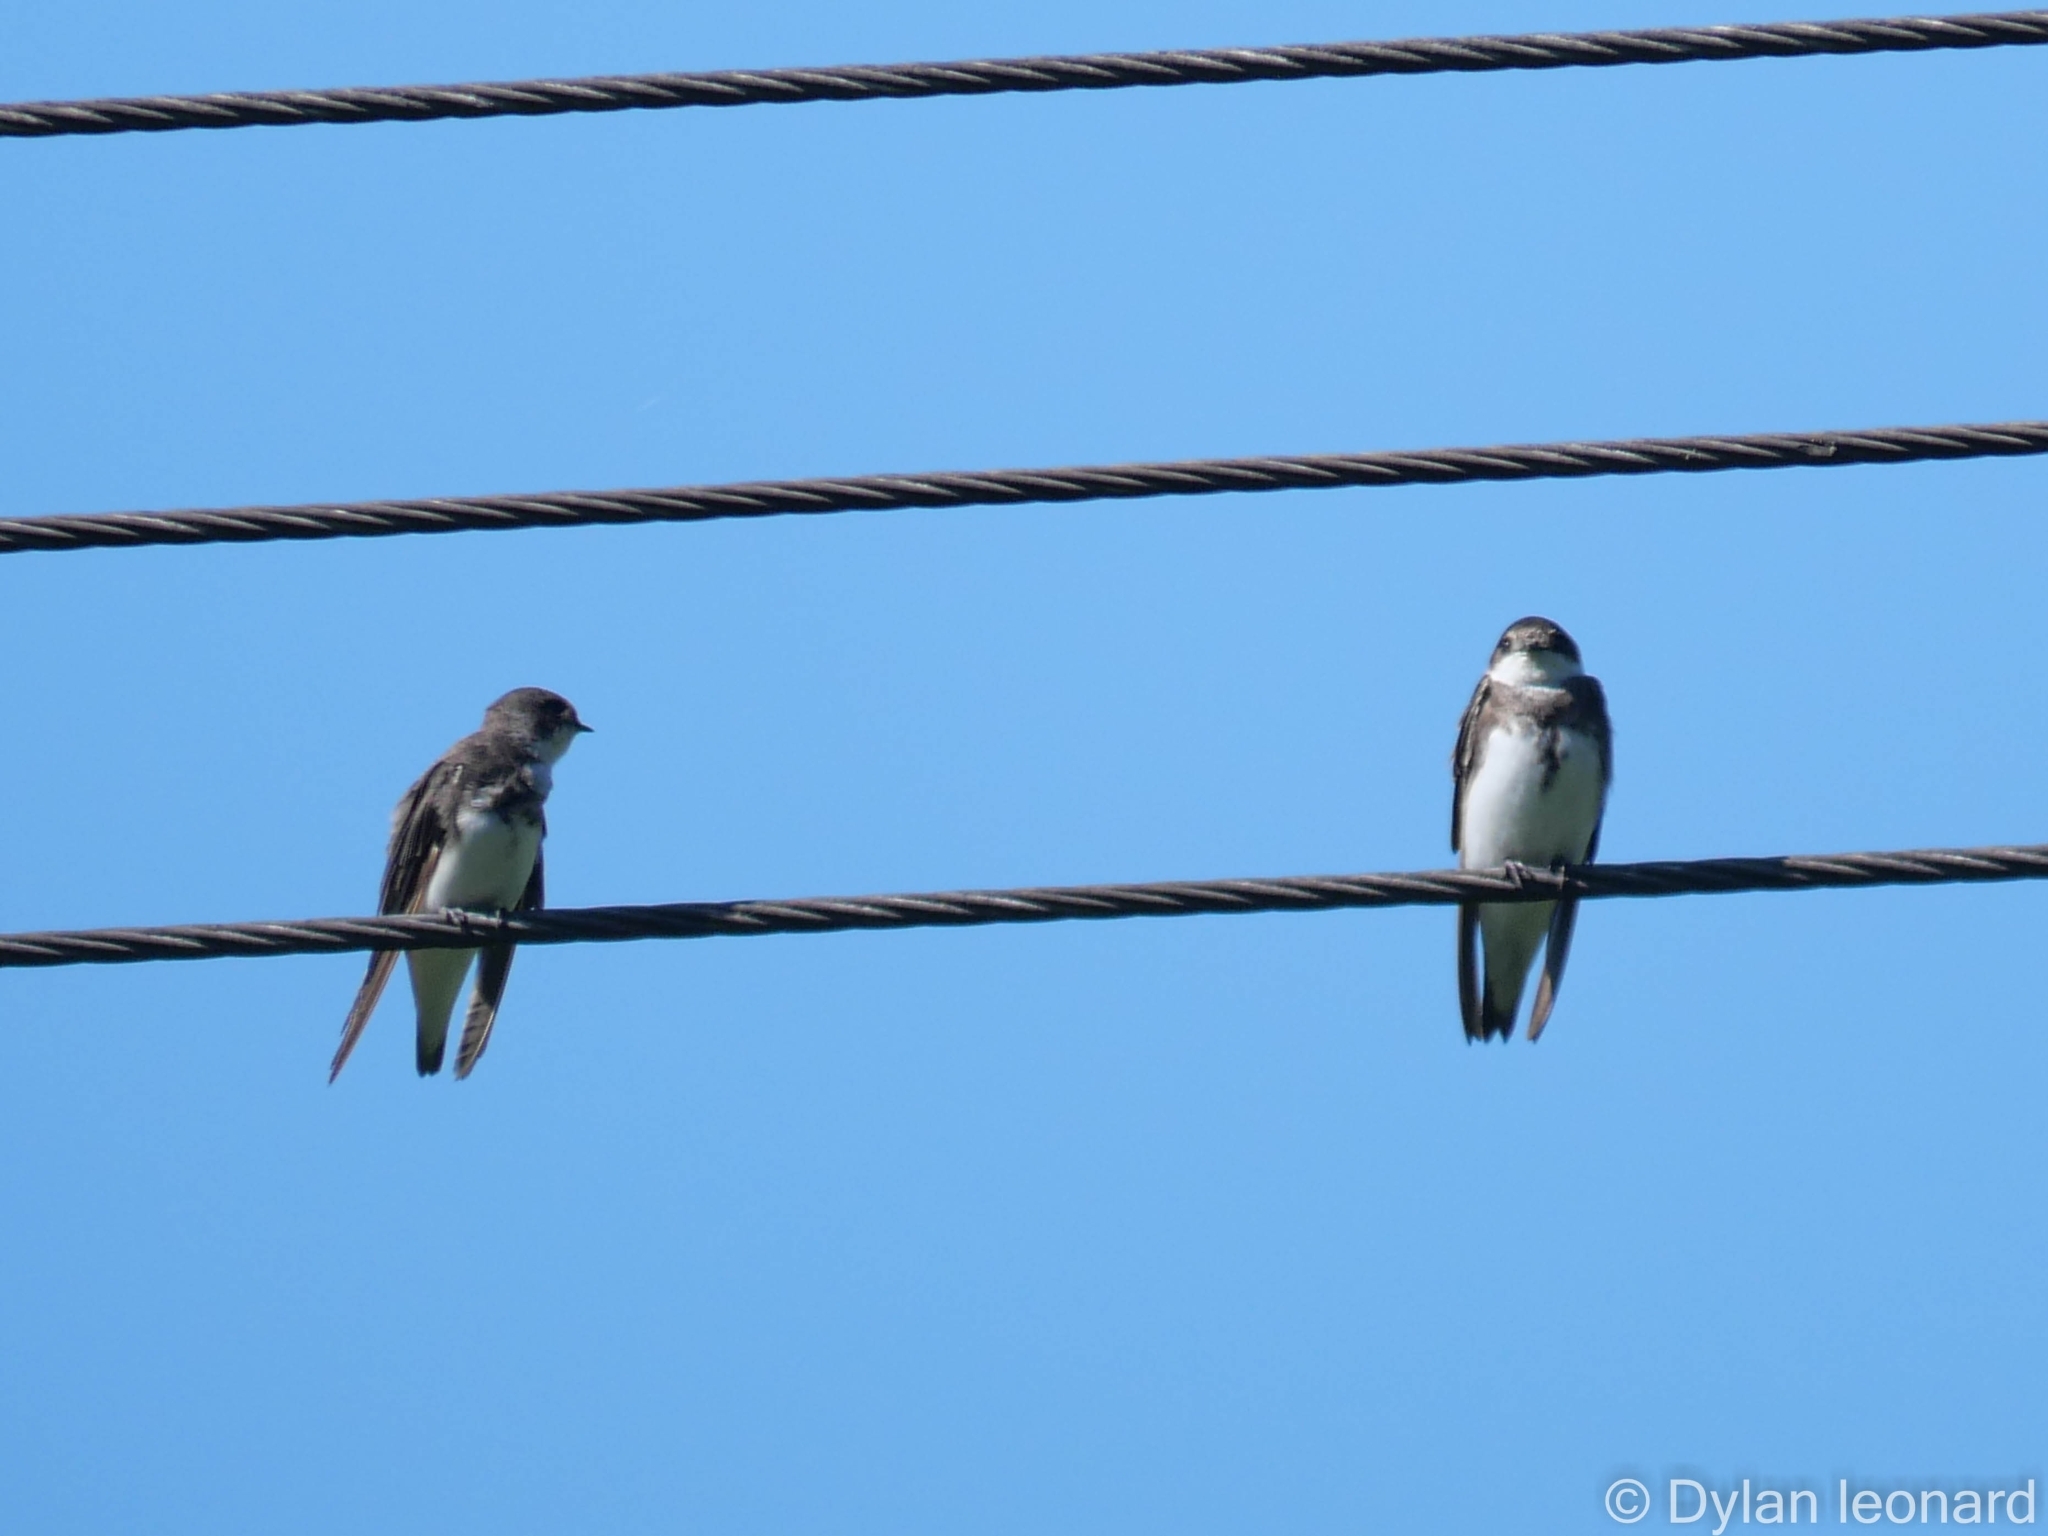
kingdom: Animalia
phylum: Chordata
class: Aves
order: Passeriformes
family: Hirundinidae
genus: Riparia
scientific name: Riparia riparia
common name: Sand martin
